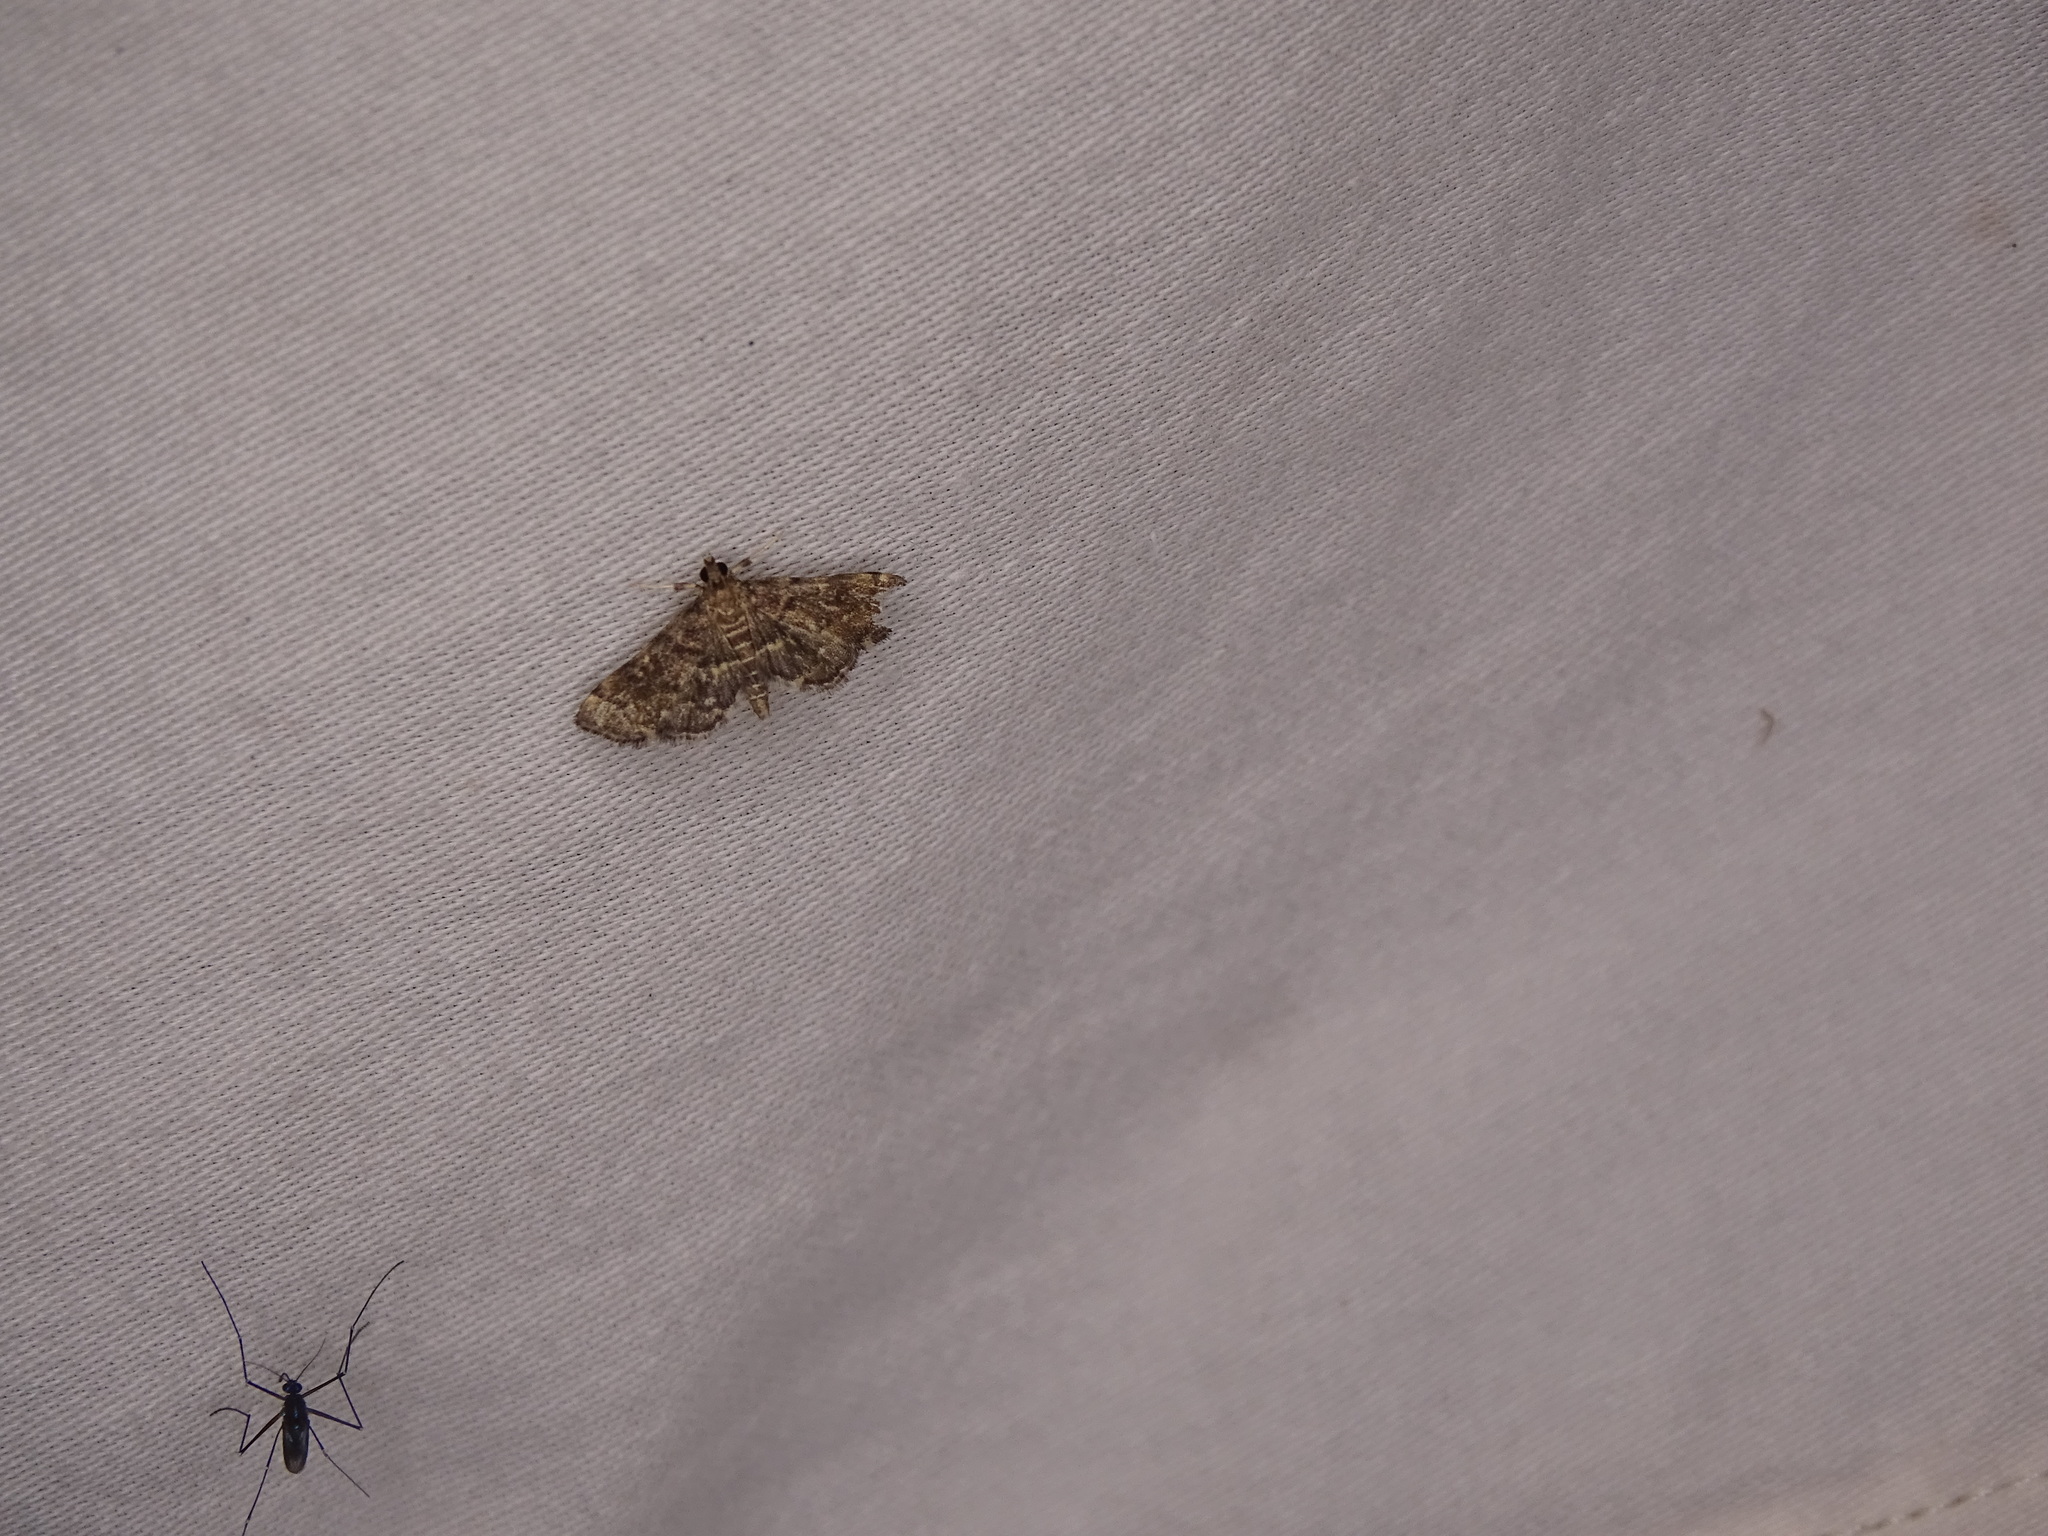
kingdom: Animalia
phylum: Arthropoda
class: Insecta
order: Lepidoptera
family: Crambidae
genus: Anageshna
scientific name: Anageshna primordialis
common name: Yellow-spotted webworm moth
